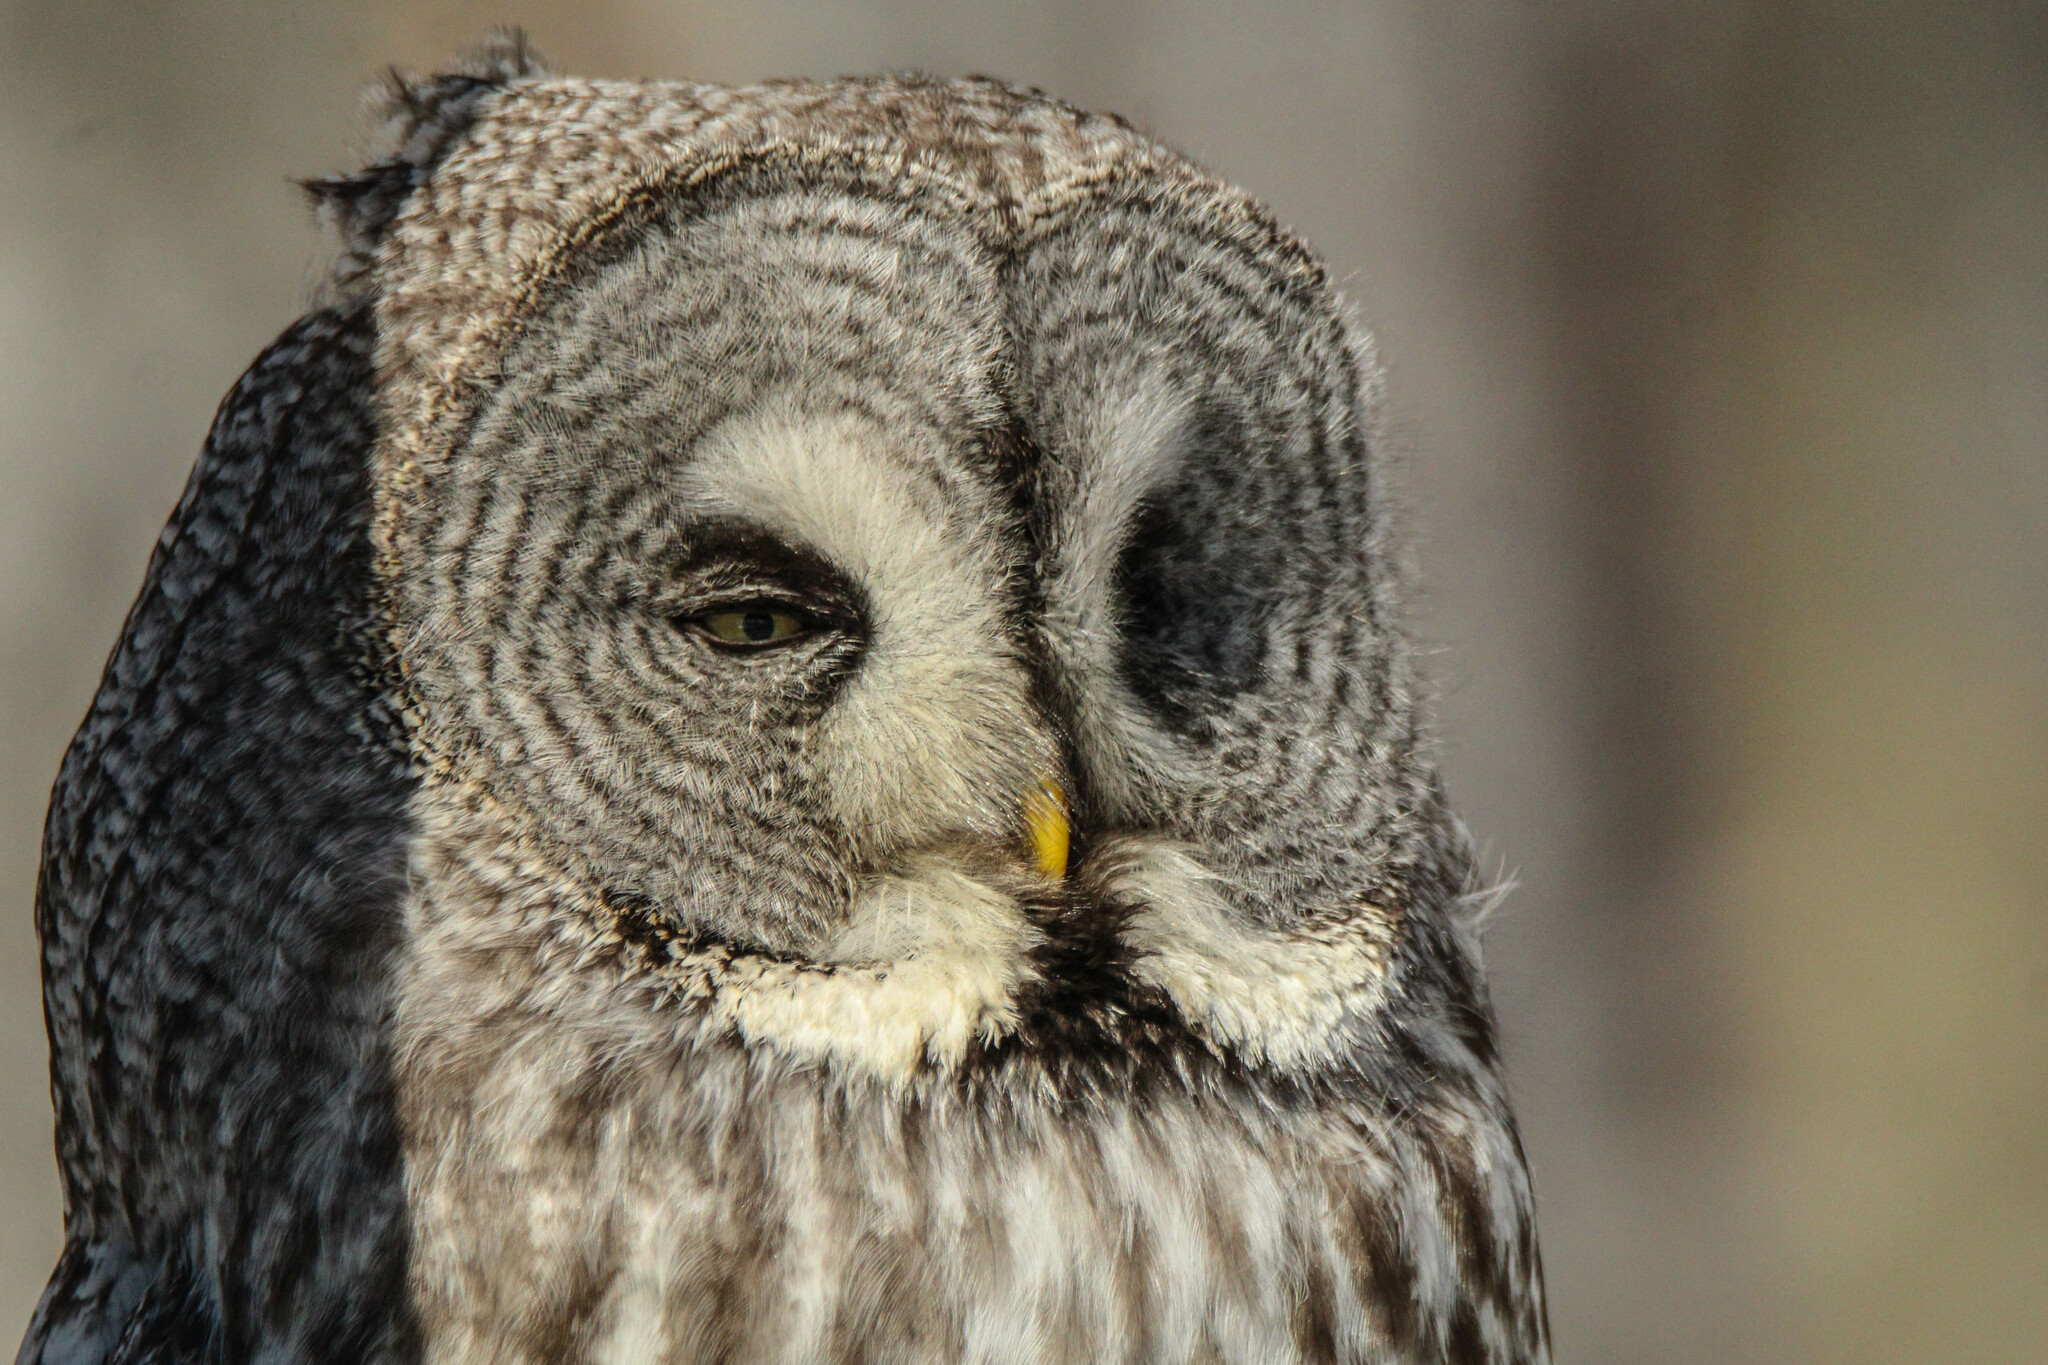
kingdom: Animalia
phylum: Chordata
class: Aves
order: Strigiformes
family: Strigidae
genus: Strix
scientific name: Strix nebulosa
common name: Great grey owl
